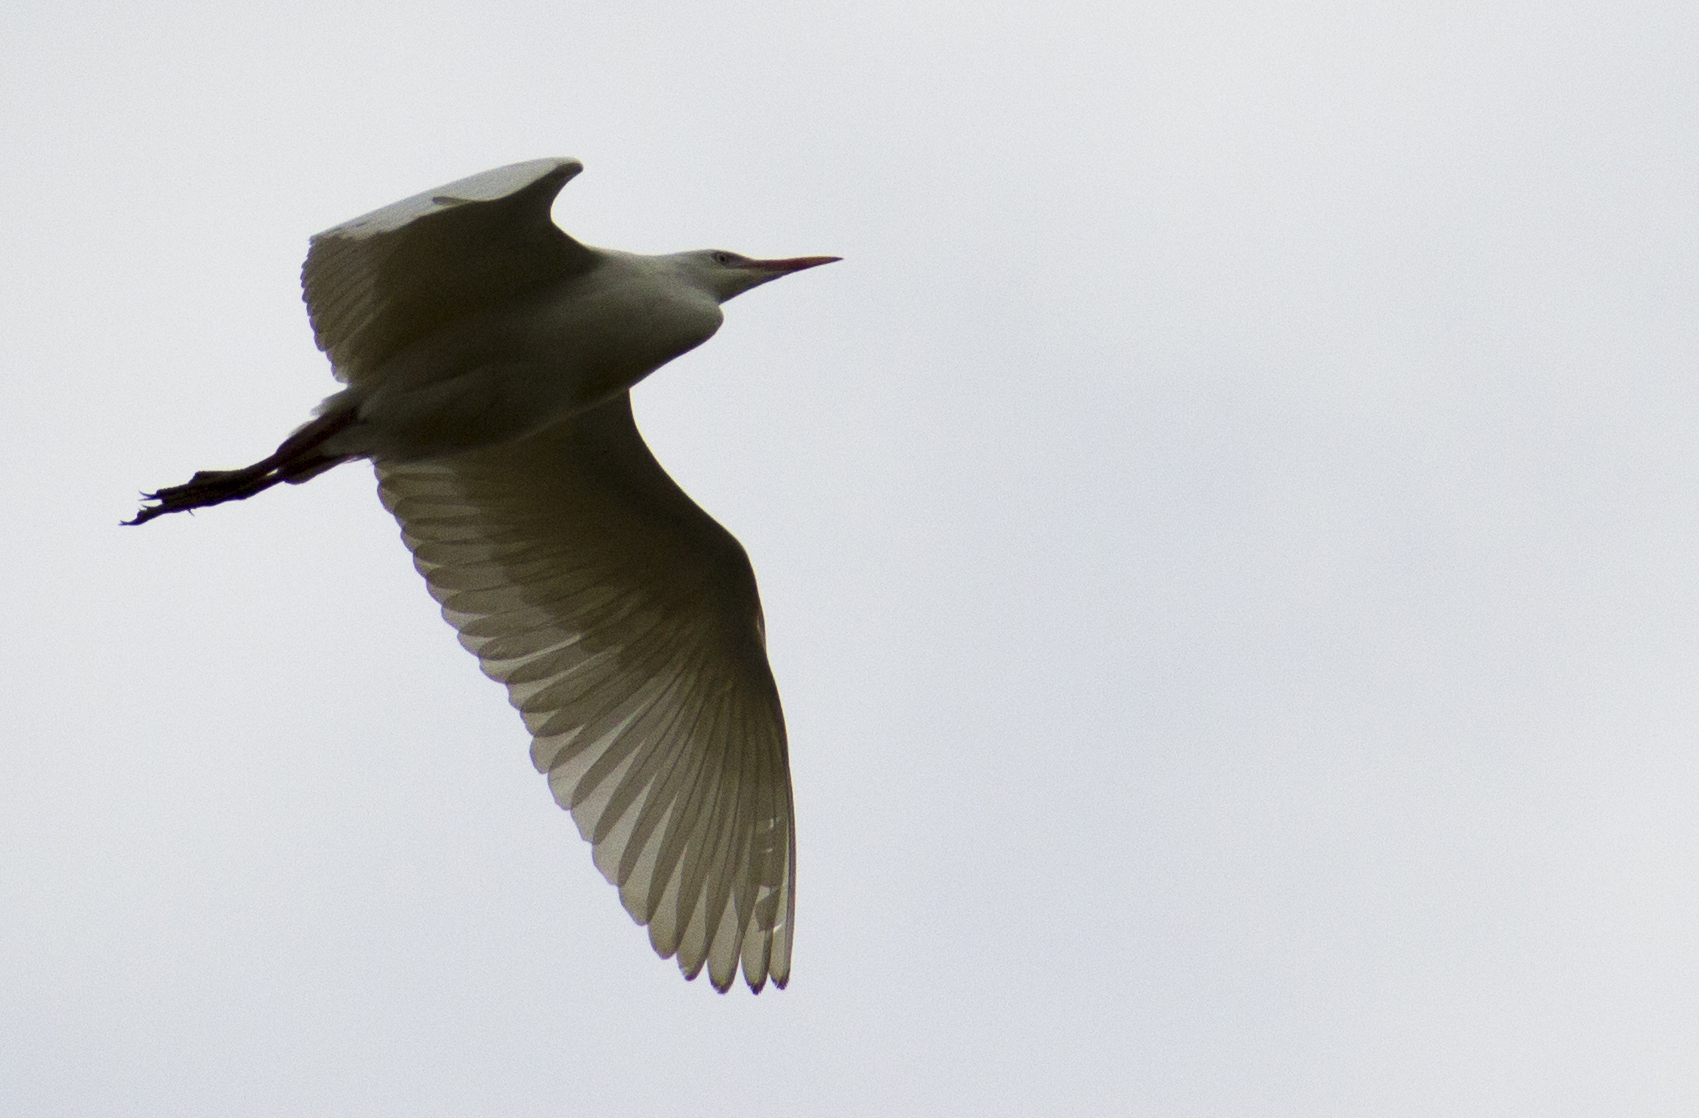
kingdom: Animalia
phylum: Chordata
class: Aves
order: Pelecaniformes
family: Ardeidae
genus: Bubulcus
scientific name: Bubulcus ibis
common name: Cattle egret
